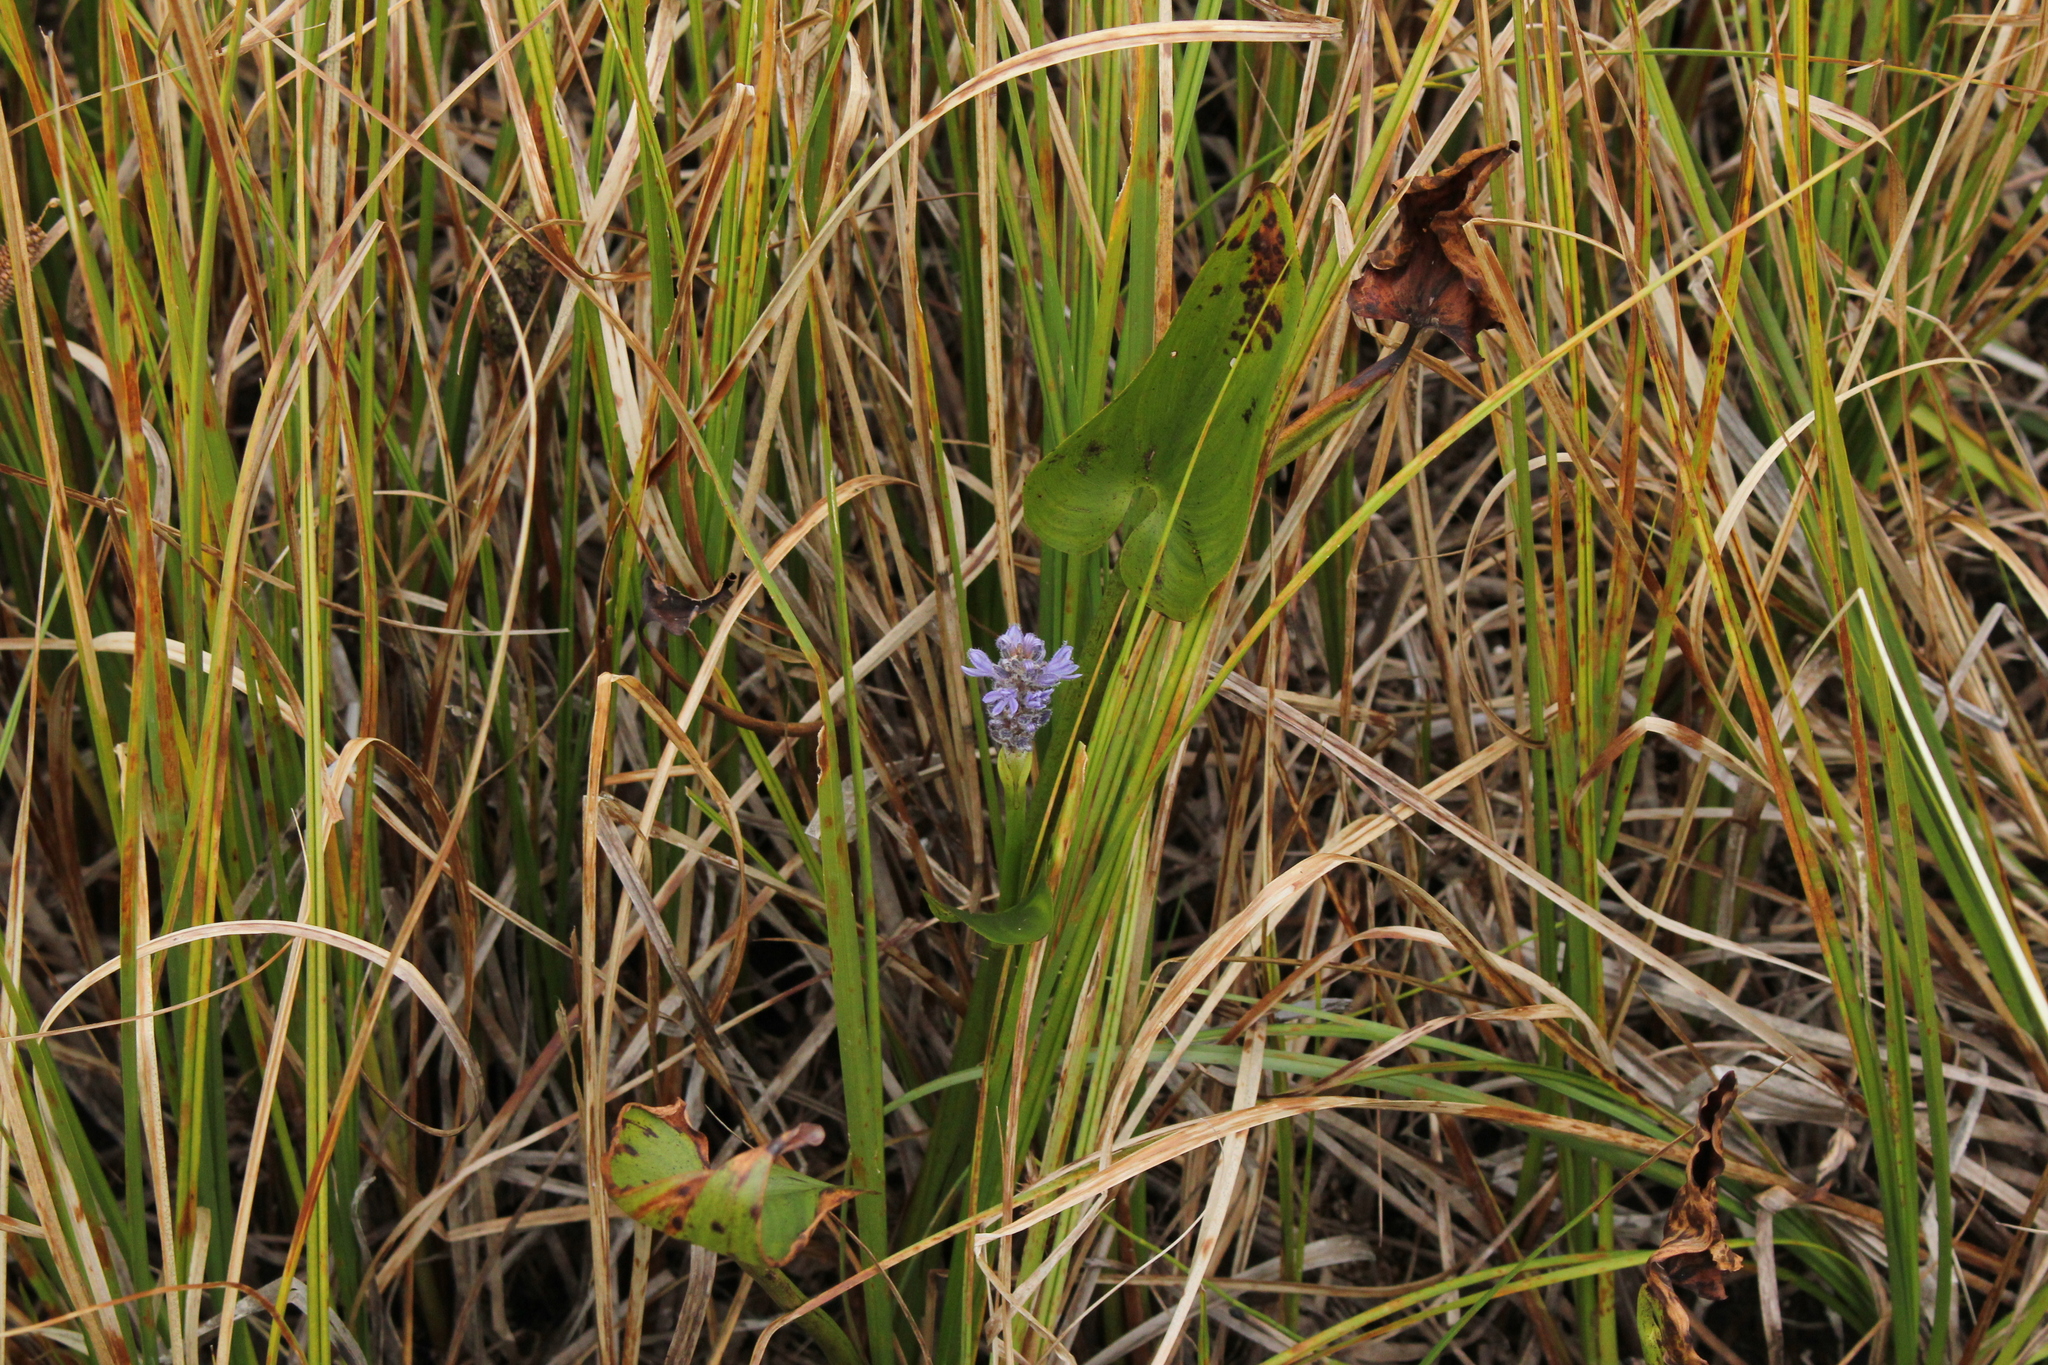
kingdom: Plantae
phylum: Tracheophyta
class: Liliopsida
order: Commelinales
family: Pontederiaceae
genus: Pontederia
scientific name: Pontederia cordata
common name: Pickerelweed
